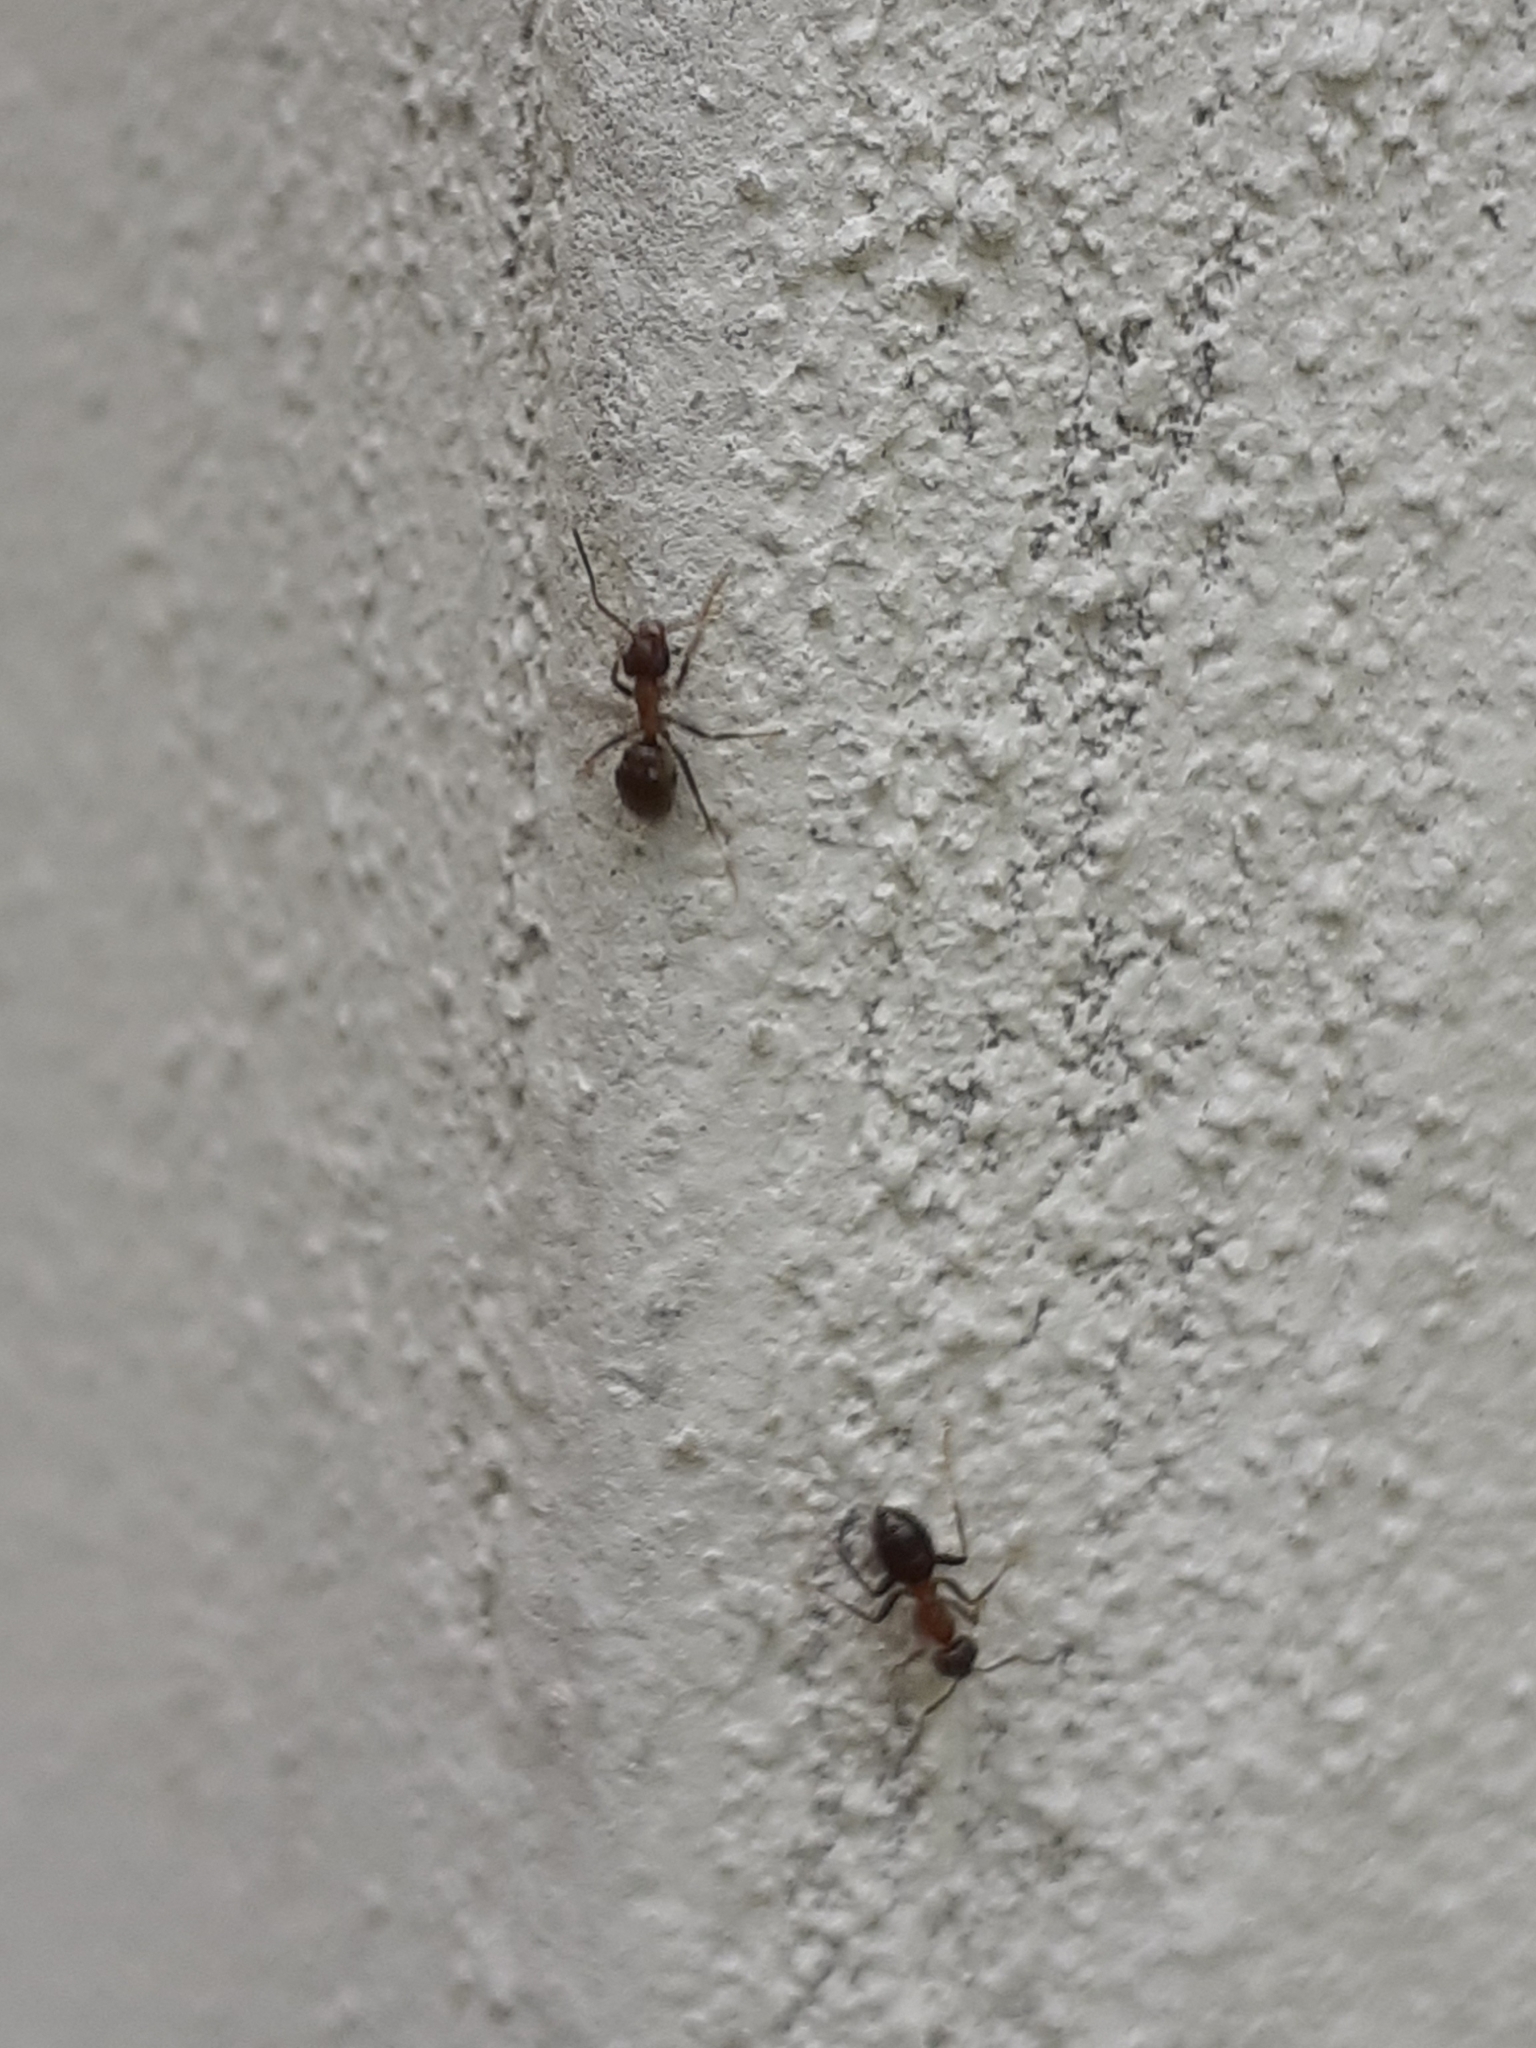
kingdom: Animalia
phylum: Arthropoda
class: Insecta
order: Hymenoptera
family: Formicidae
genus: Lasius
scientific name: Lasius emarginatus
